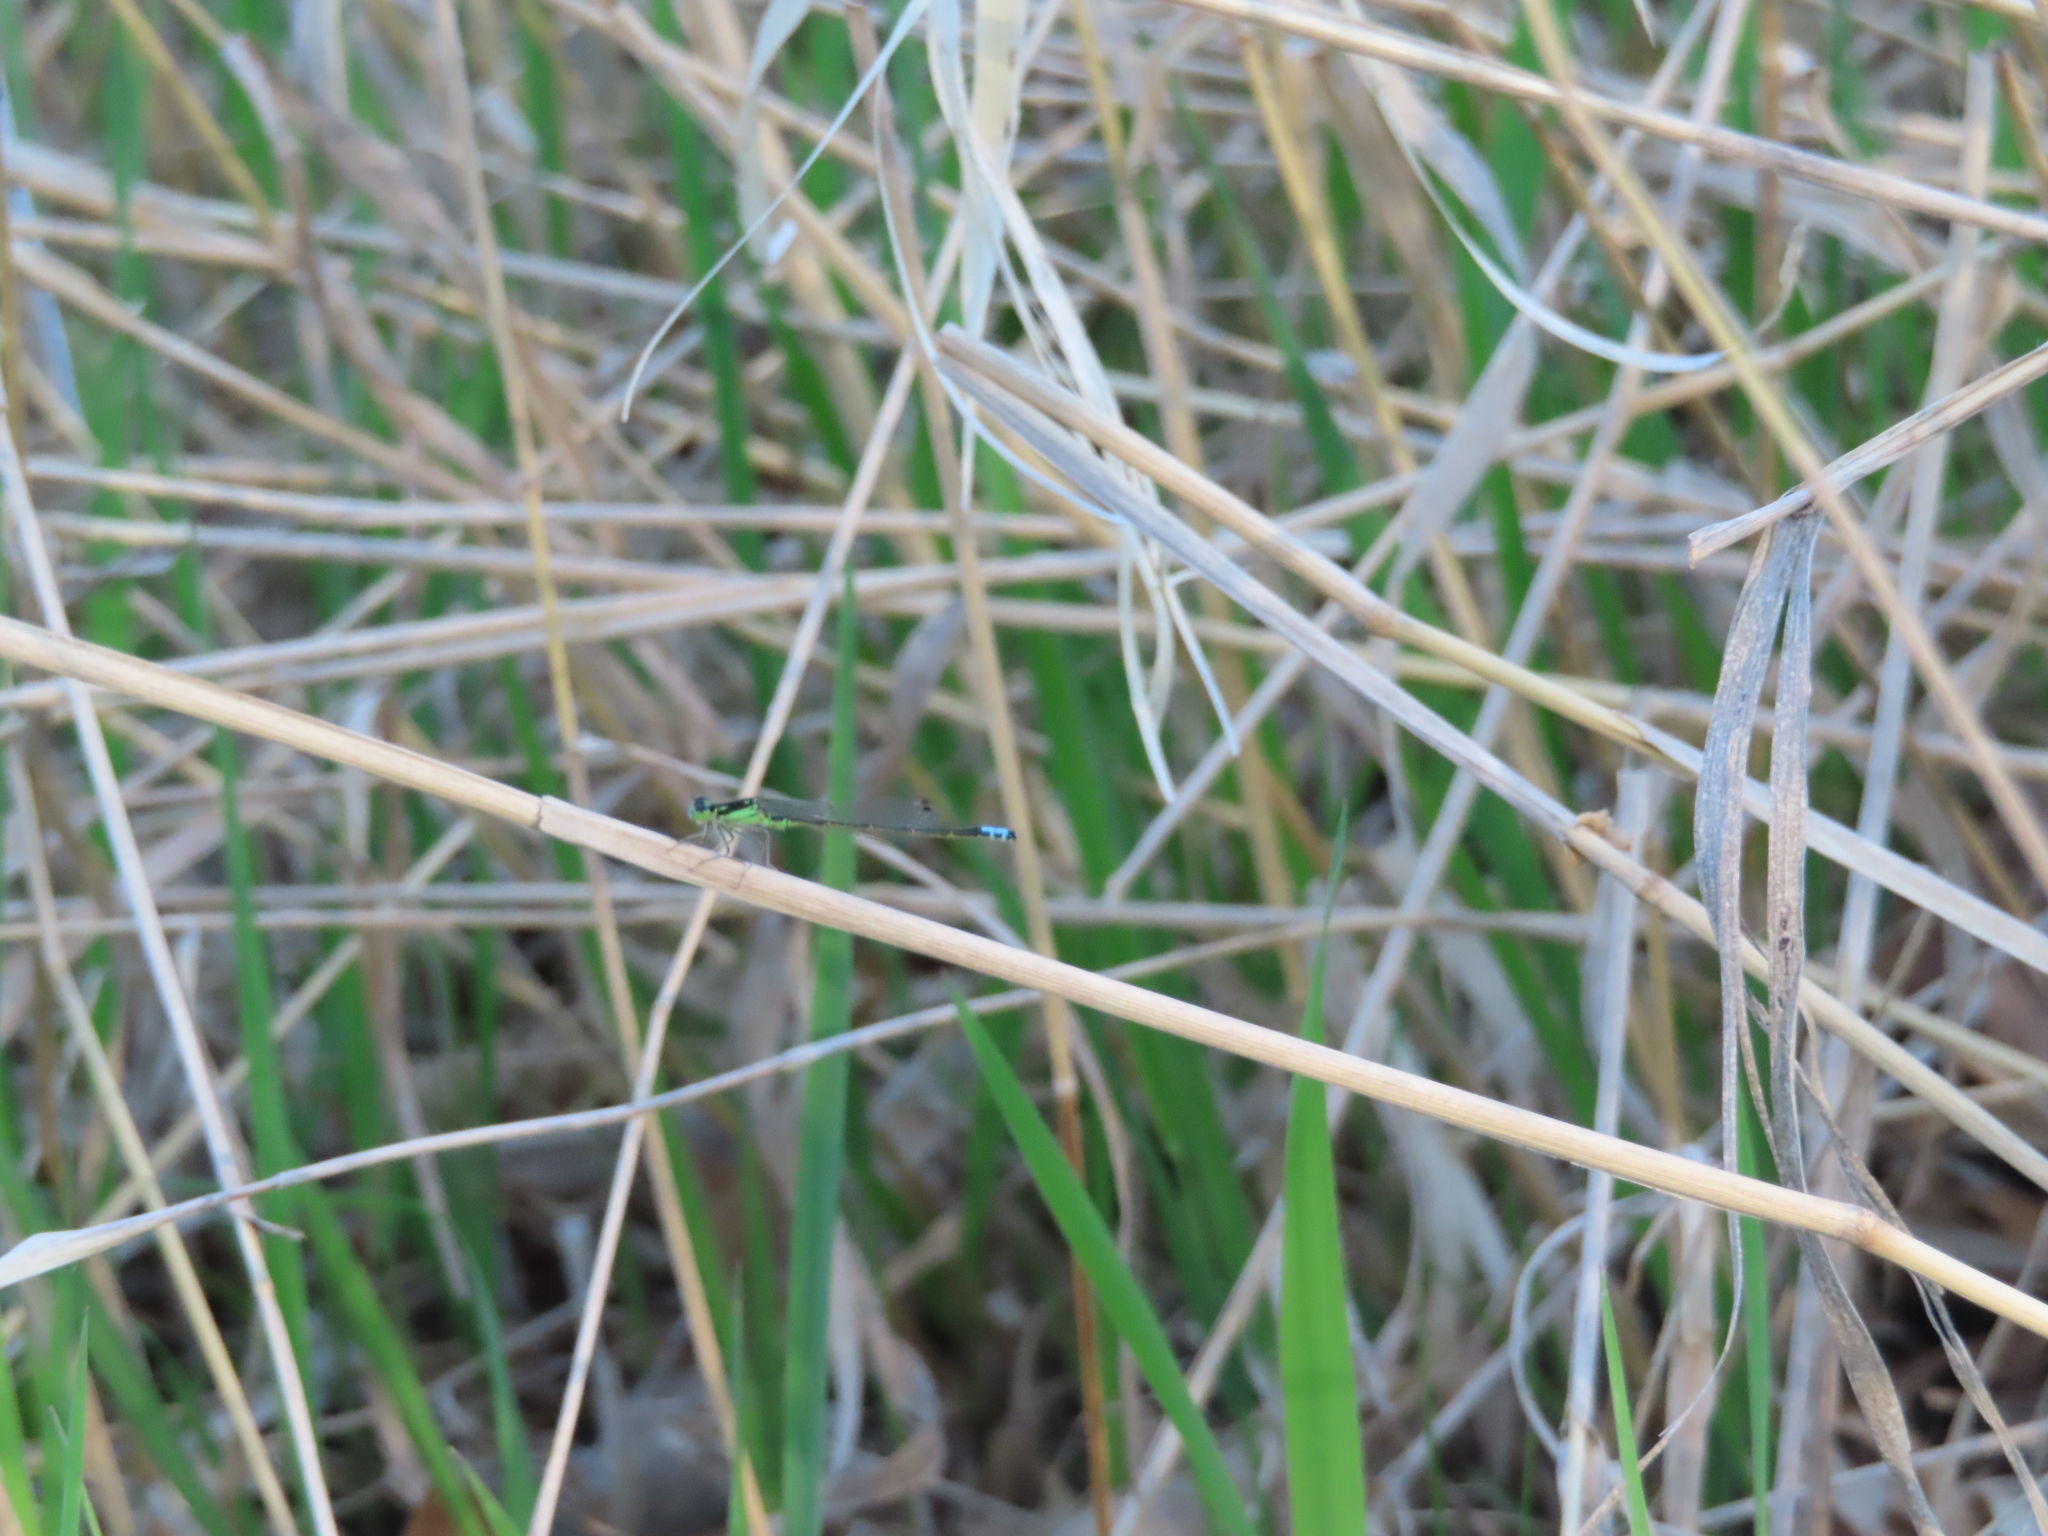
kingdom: Animalia
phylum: Arthropoda
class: Insecta
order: Odonata
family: Coenagrionidae
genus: Ischnura
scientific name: Ischnura verticalis
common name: Eastern forktail
